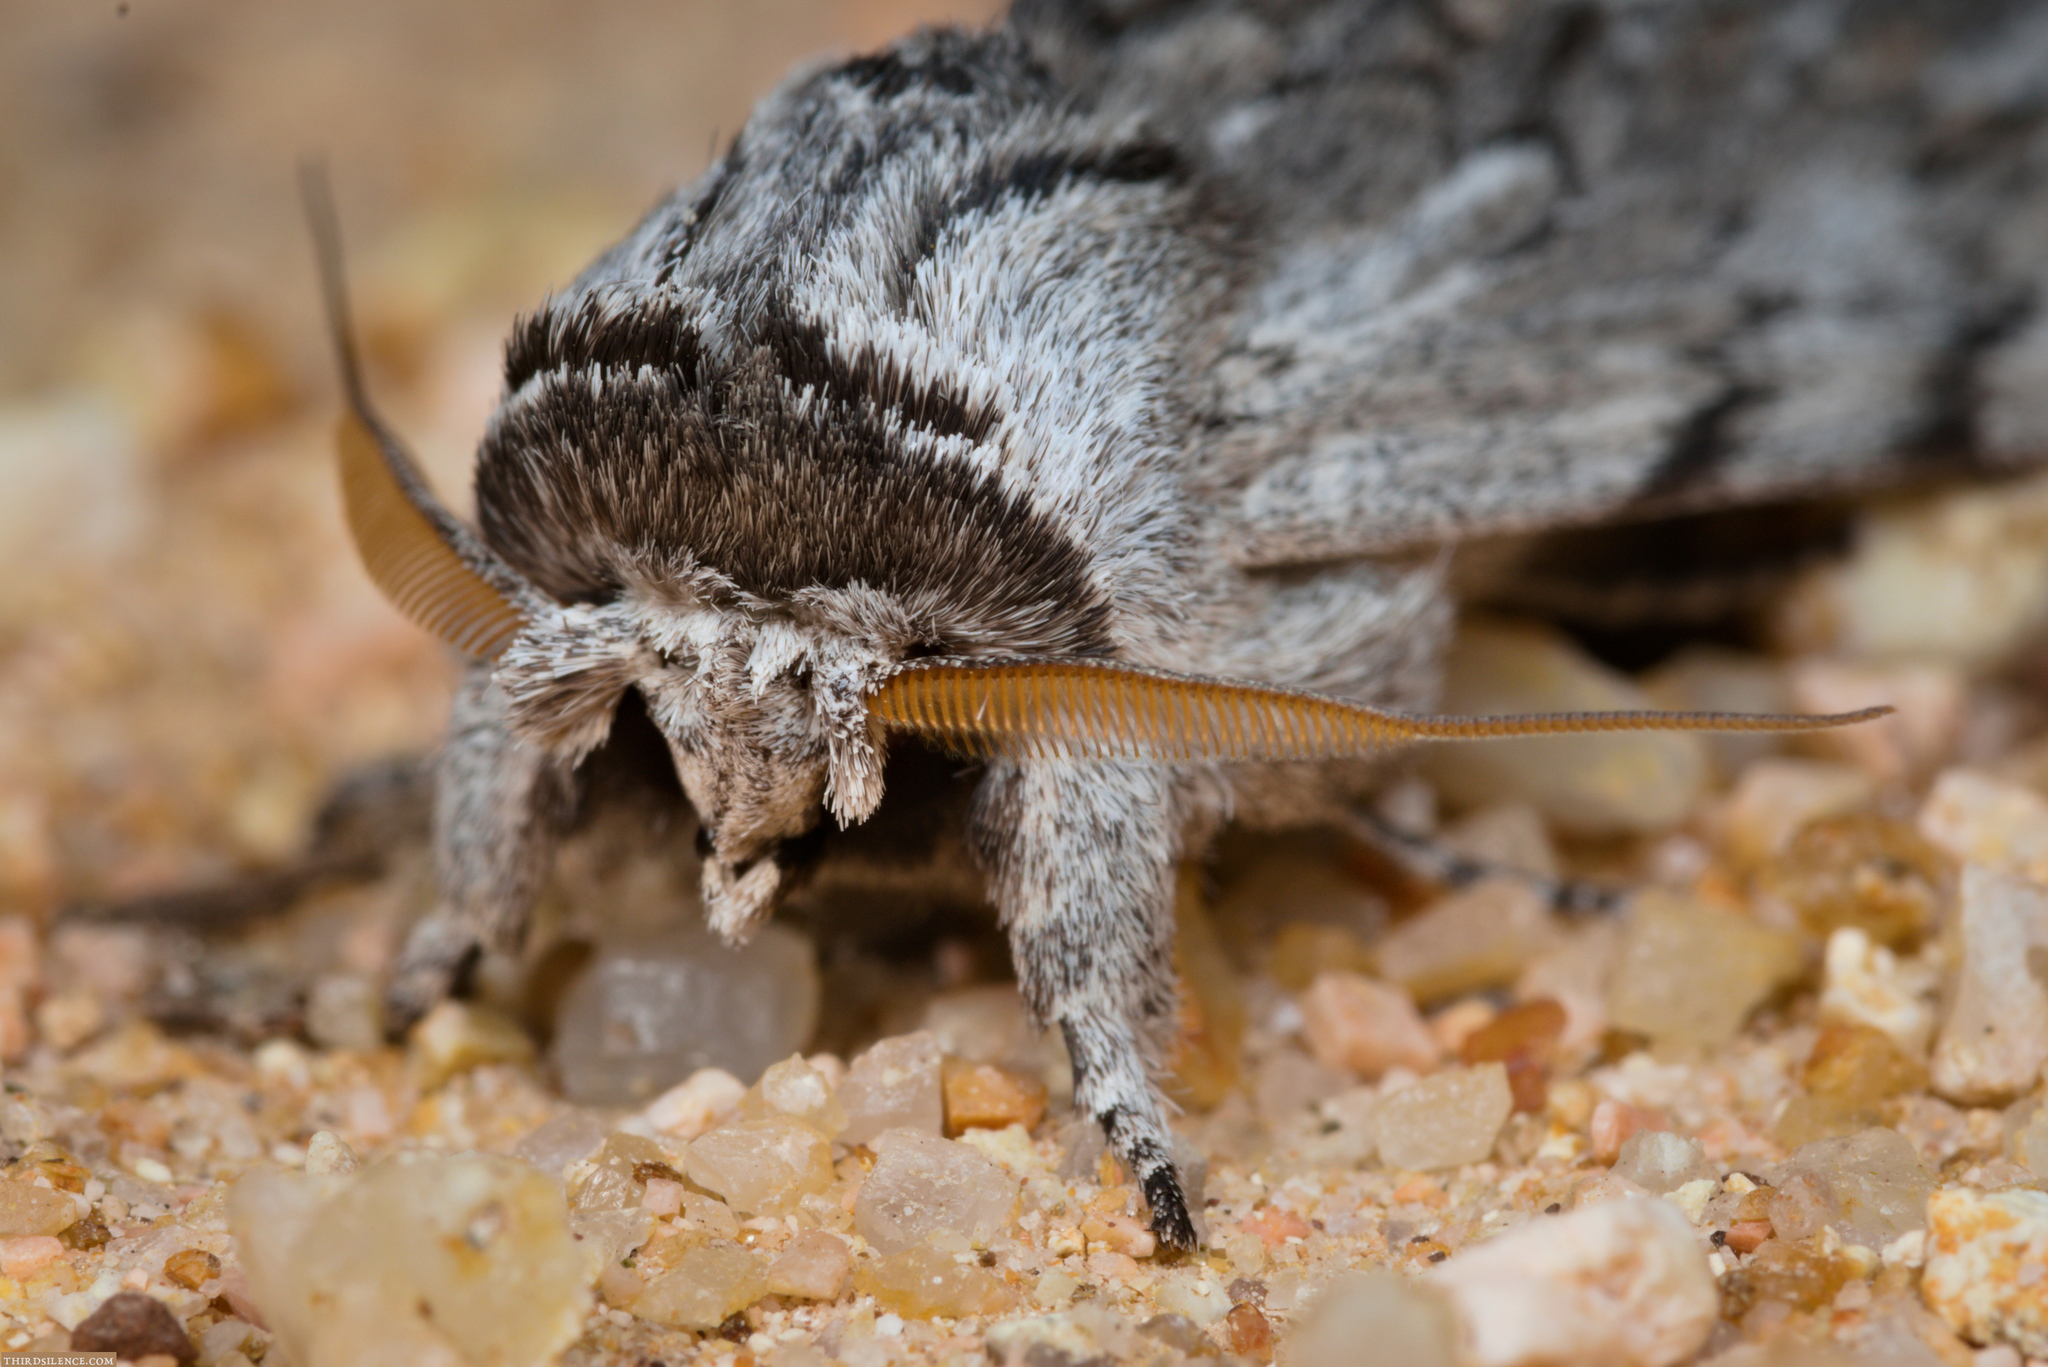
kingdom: Animalia
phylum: Arthropoda
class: Insecta
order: Lepidoptera
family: Notodontidae
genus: Destolmia
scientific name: Destolmia lineata
